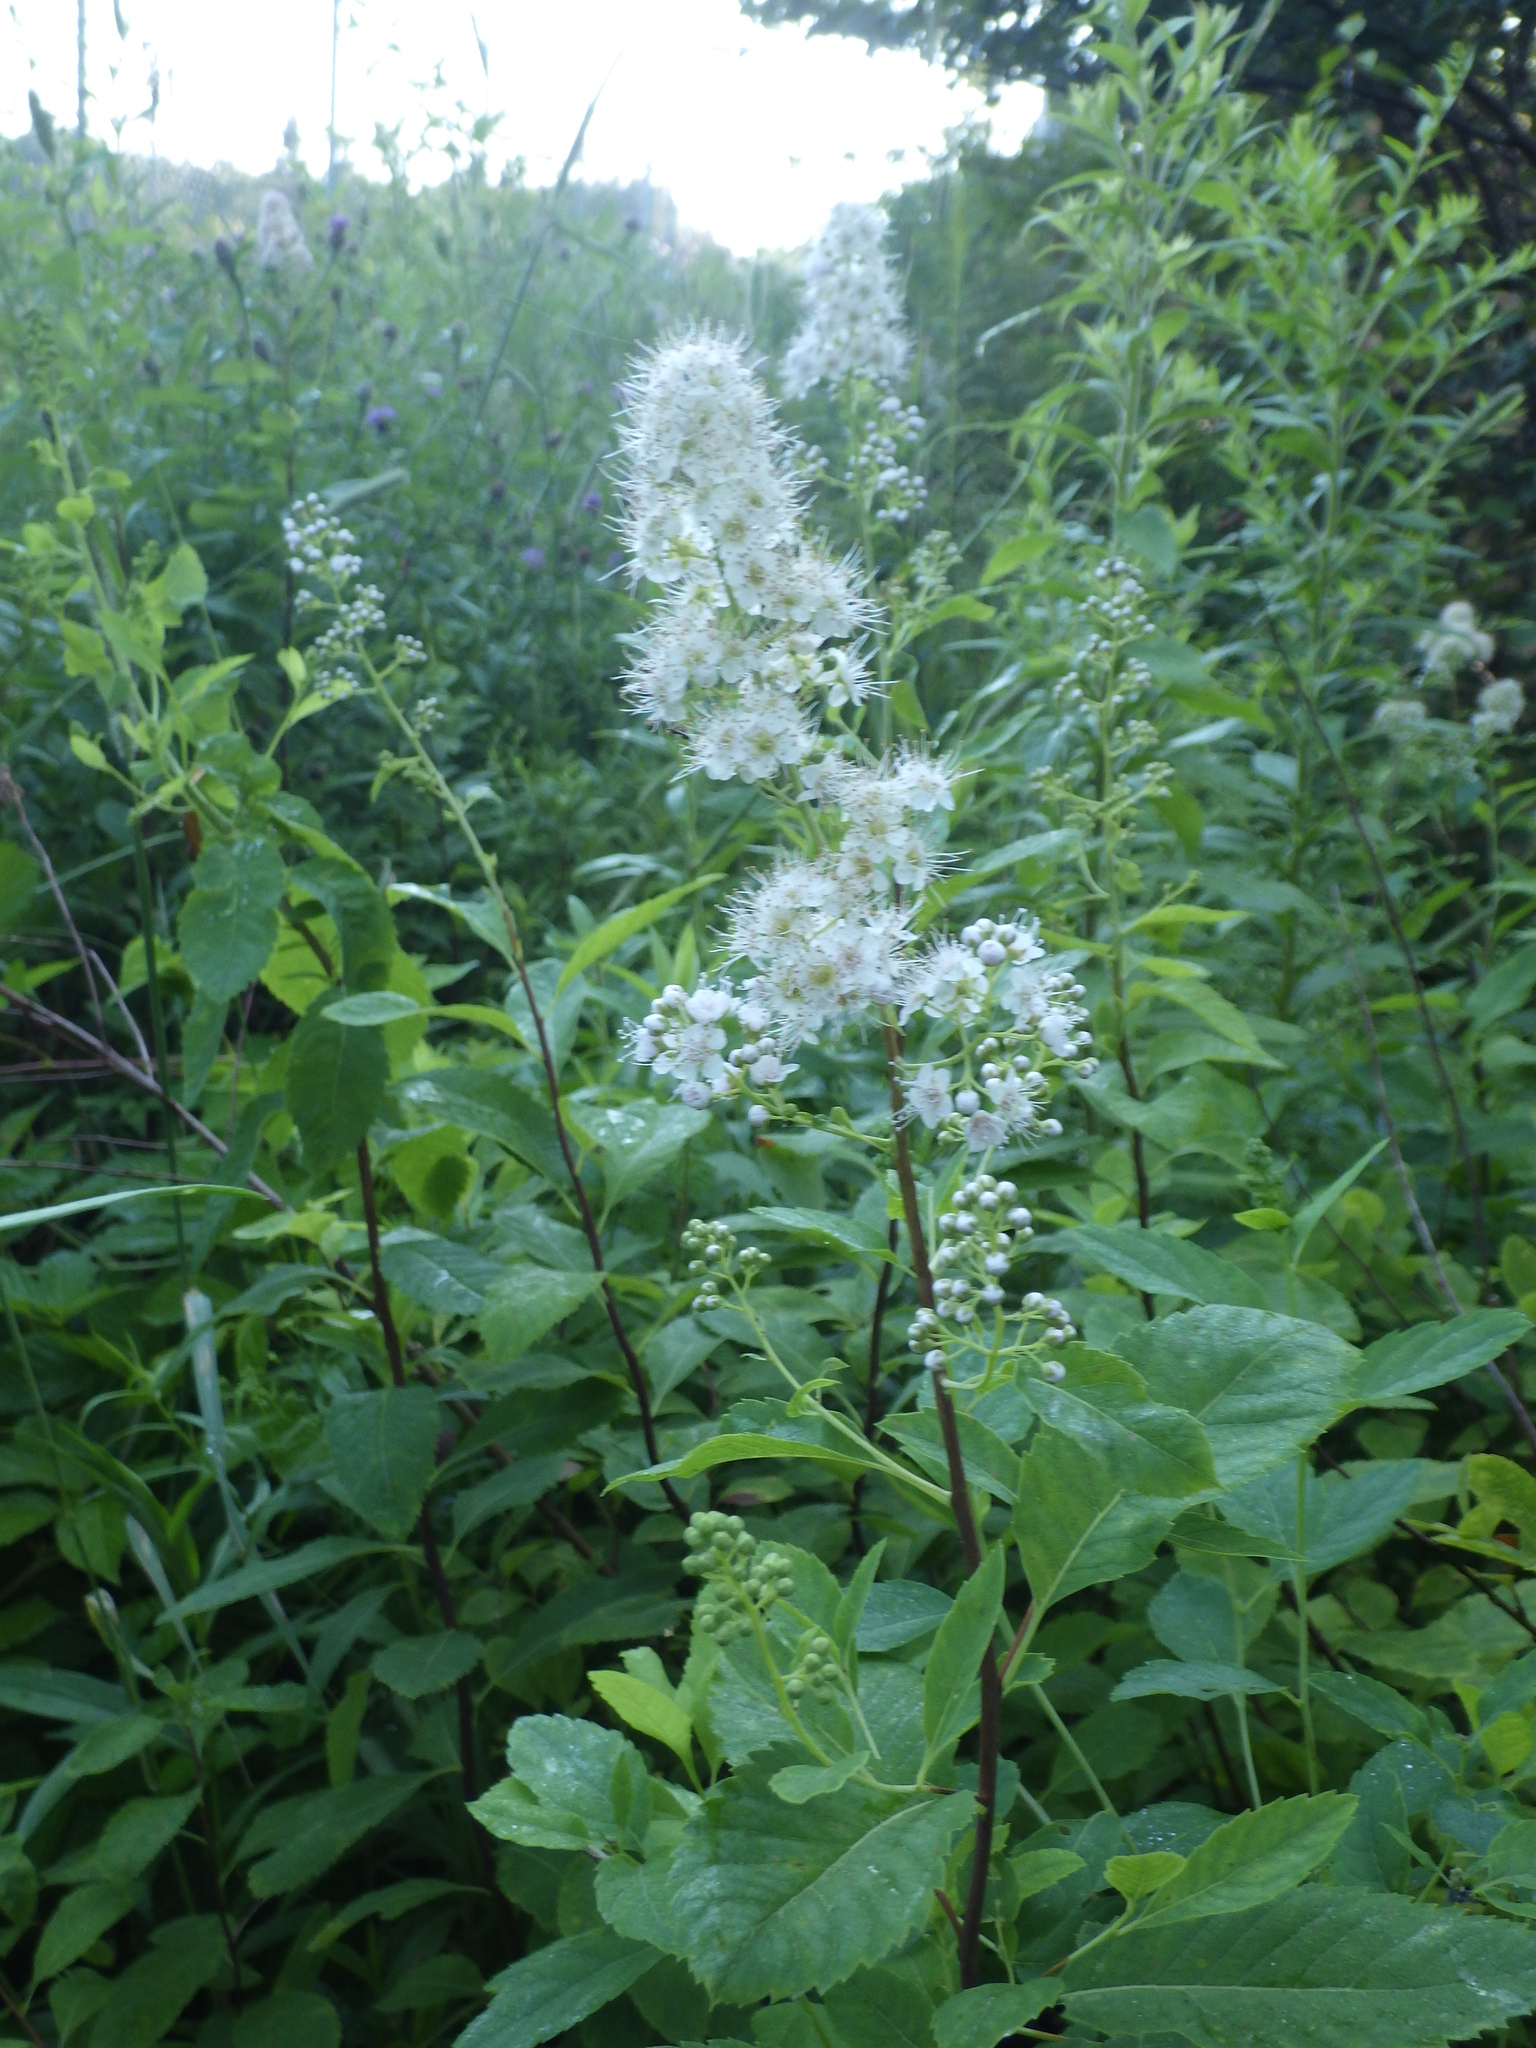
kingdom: Plantae
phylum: Tracheophyta
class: Magnoliopsida
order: Rosales
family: Rosaceae
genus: Spiraea
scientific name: Spiraea alba
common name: Pale bridewort
